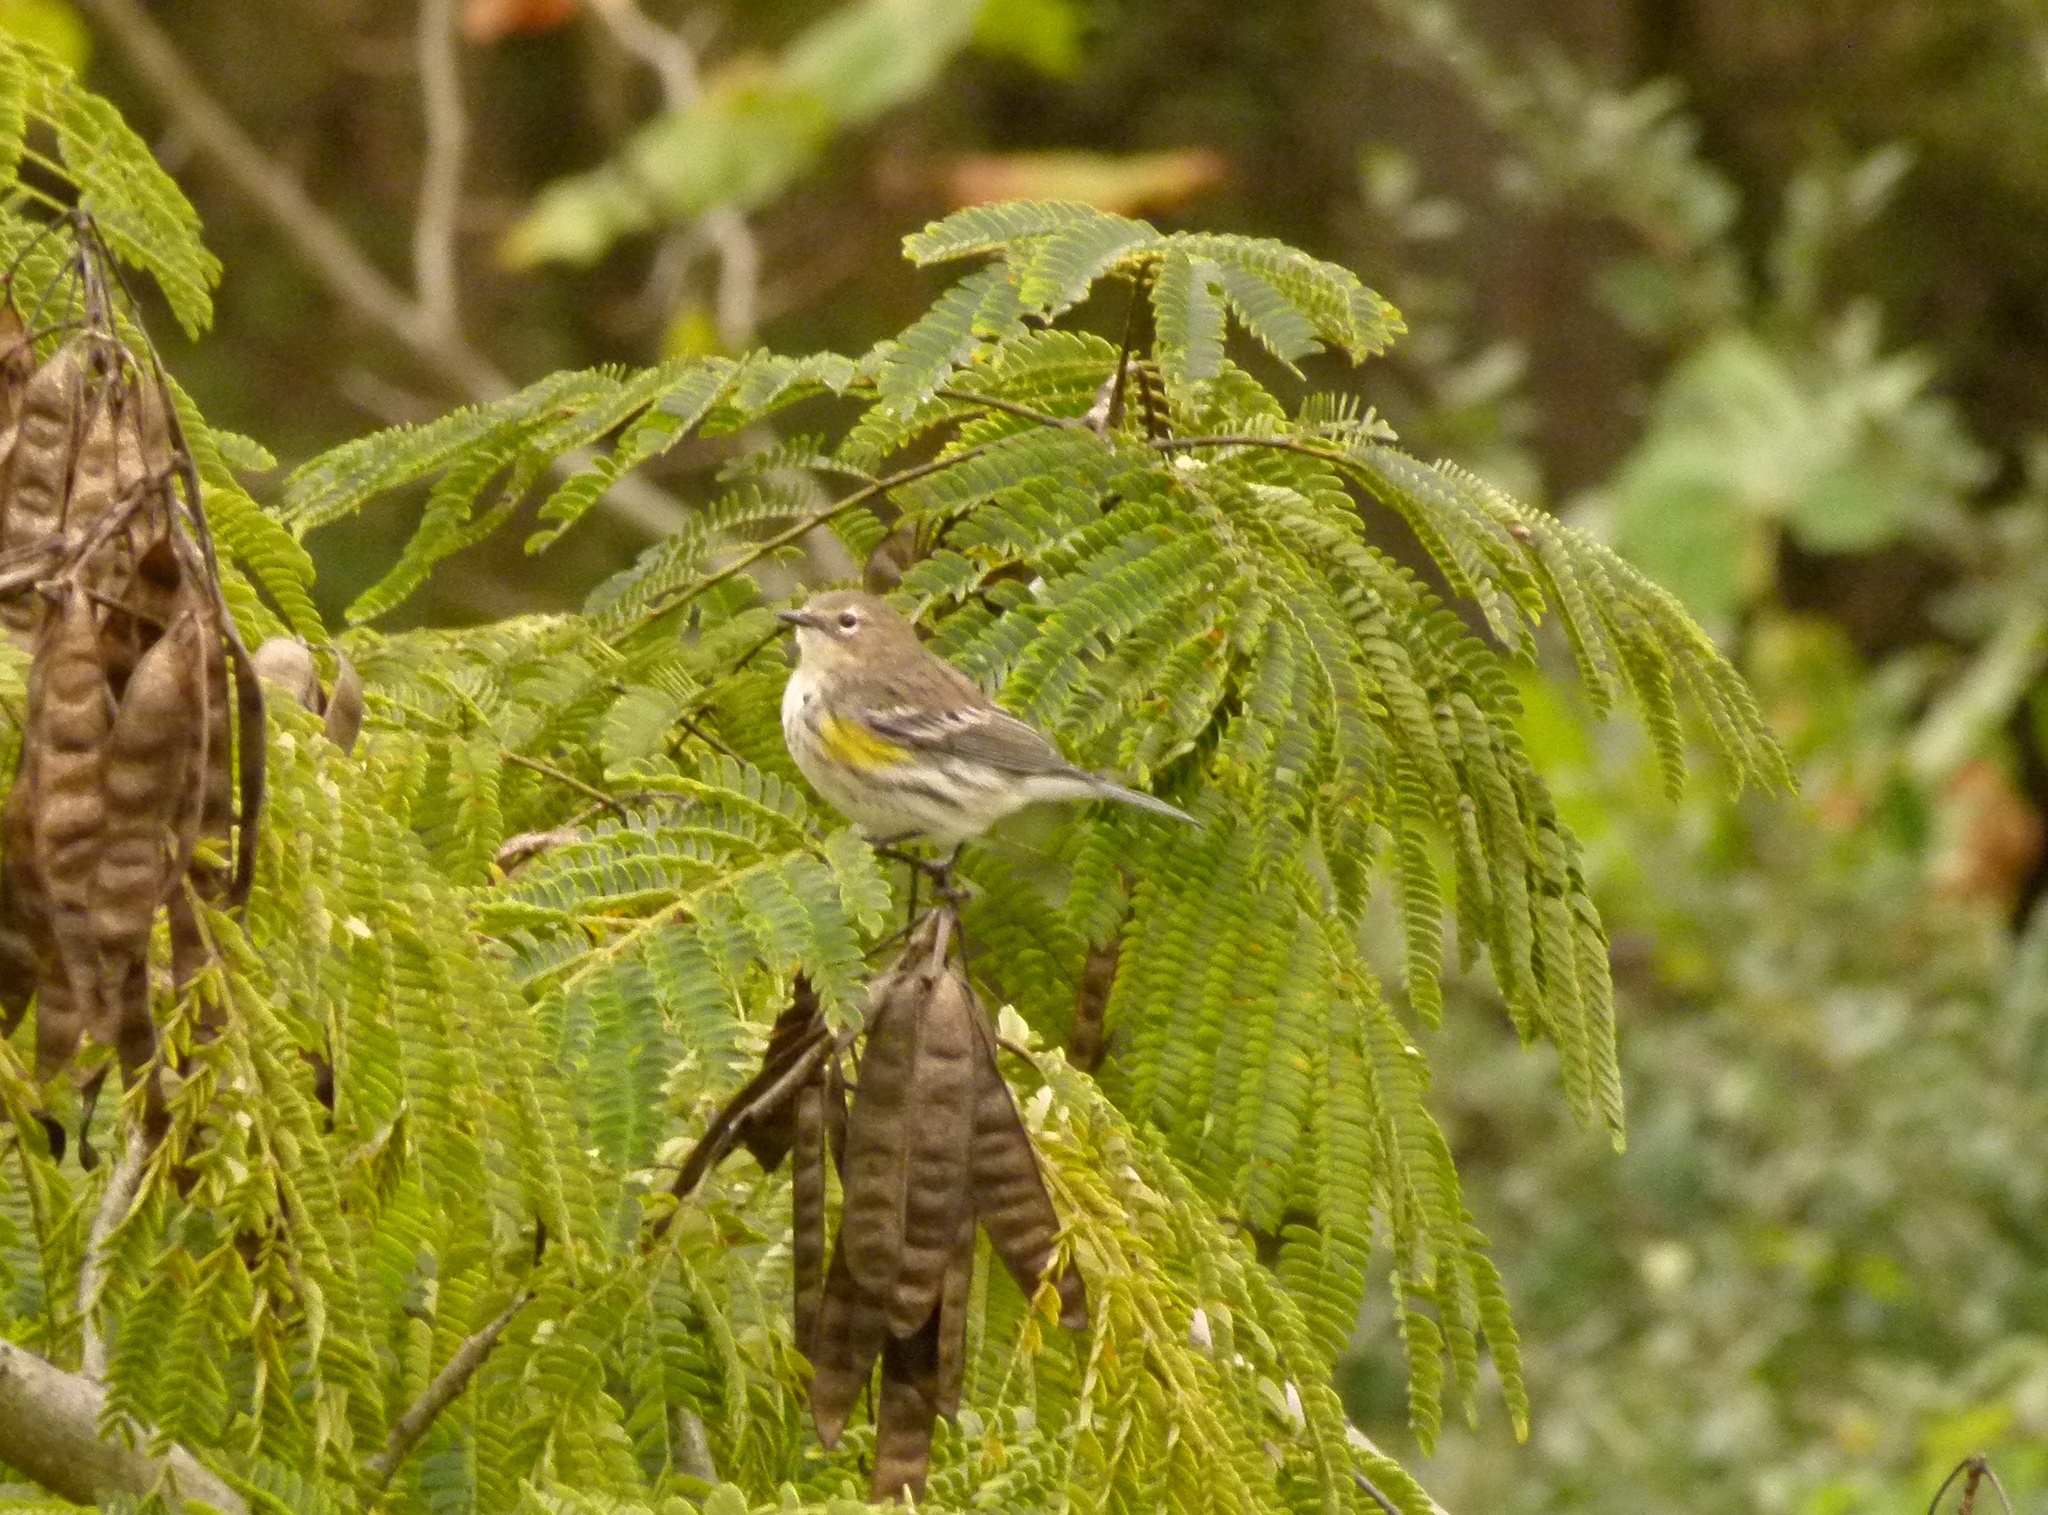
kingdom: Animalia
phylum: Chordata
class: Aves
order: Passeriformes
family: Parulidae
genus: Setophaga
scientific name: Setophaga coronata
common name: Myrtle warbler
